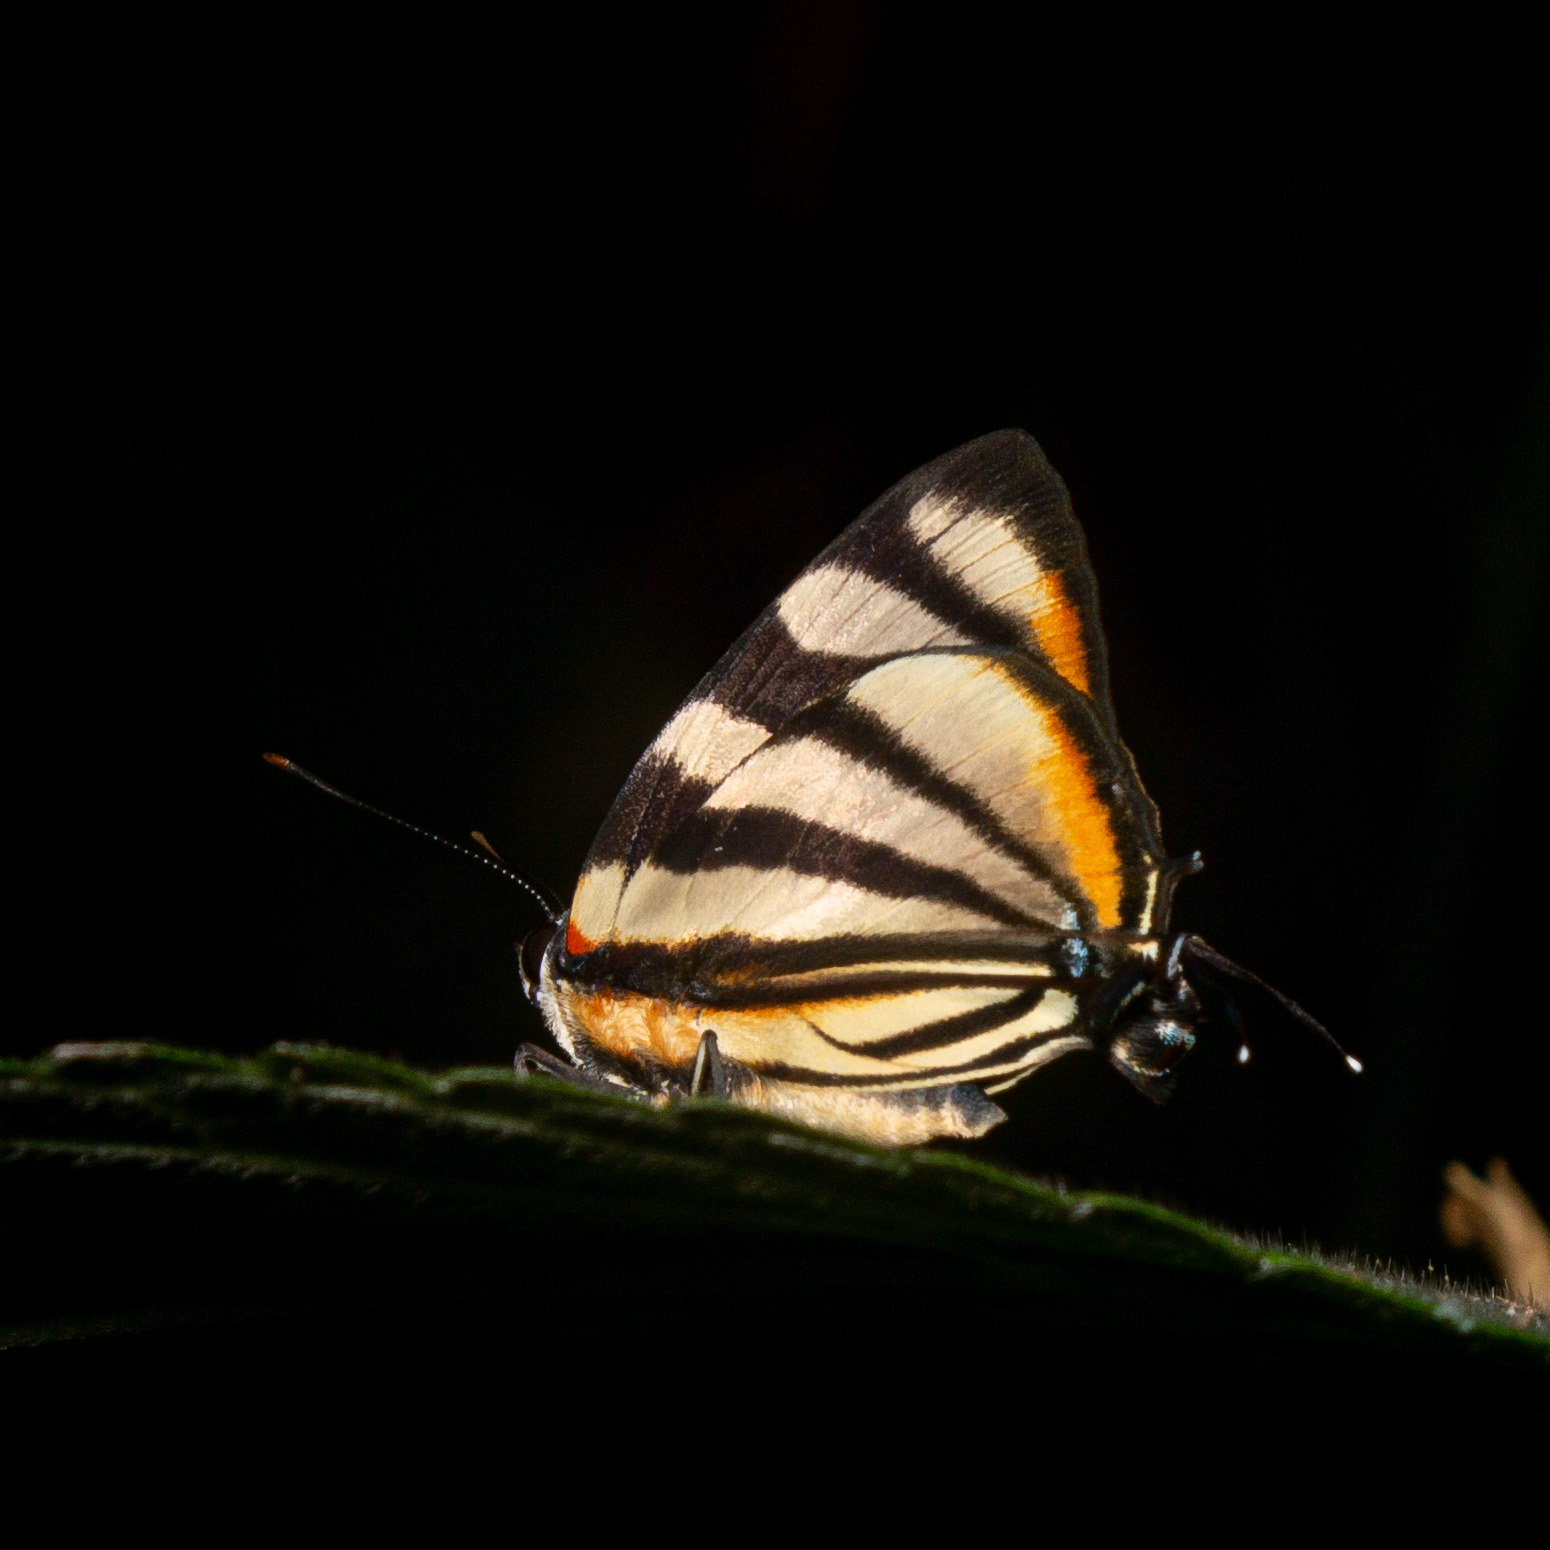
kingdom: Animalia
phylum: Arthropoda
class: Insecta
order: Lepidoptera
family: Lycaenidae
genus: Cycnus
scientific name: Cycnus phaleros
